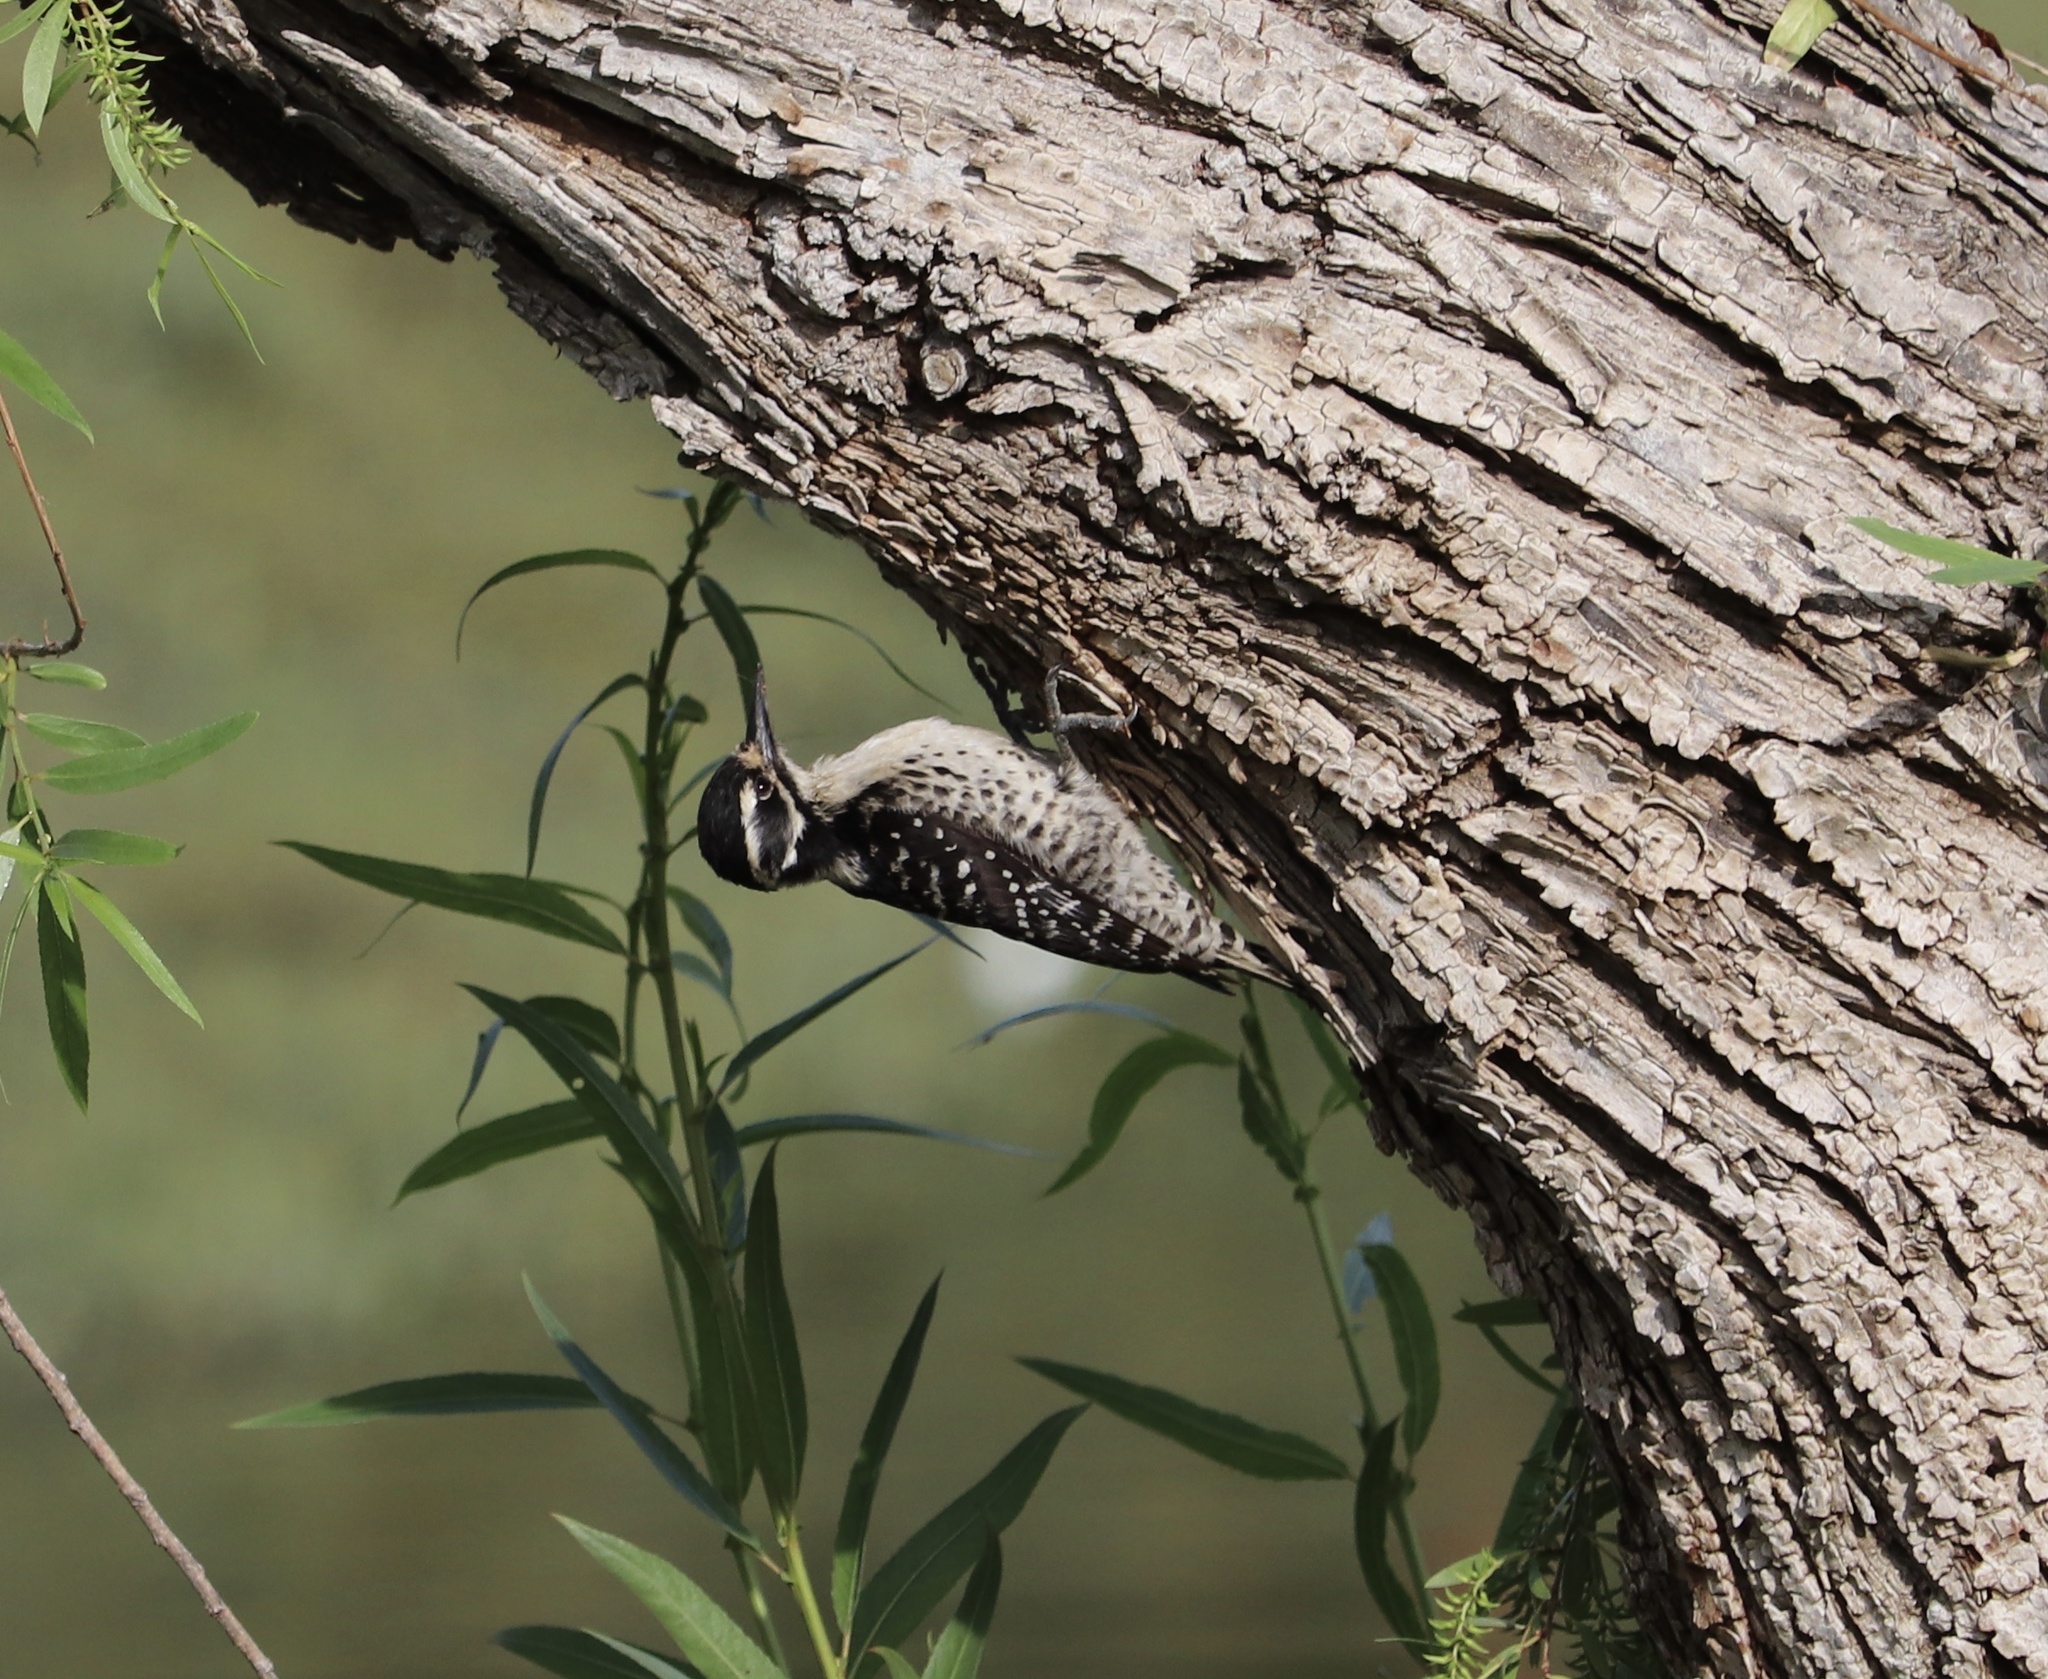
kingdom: Animalia
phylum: Chordata
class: Aves
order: Piciformes
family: Picidae
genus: Dryobates
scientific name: Dryobates nuttallii
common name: Nuttall's woodpecker
